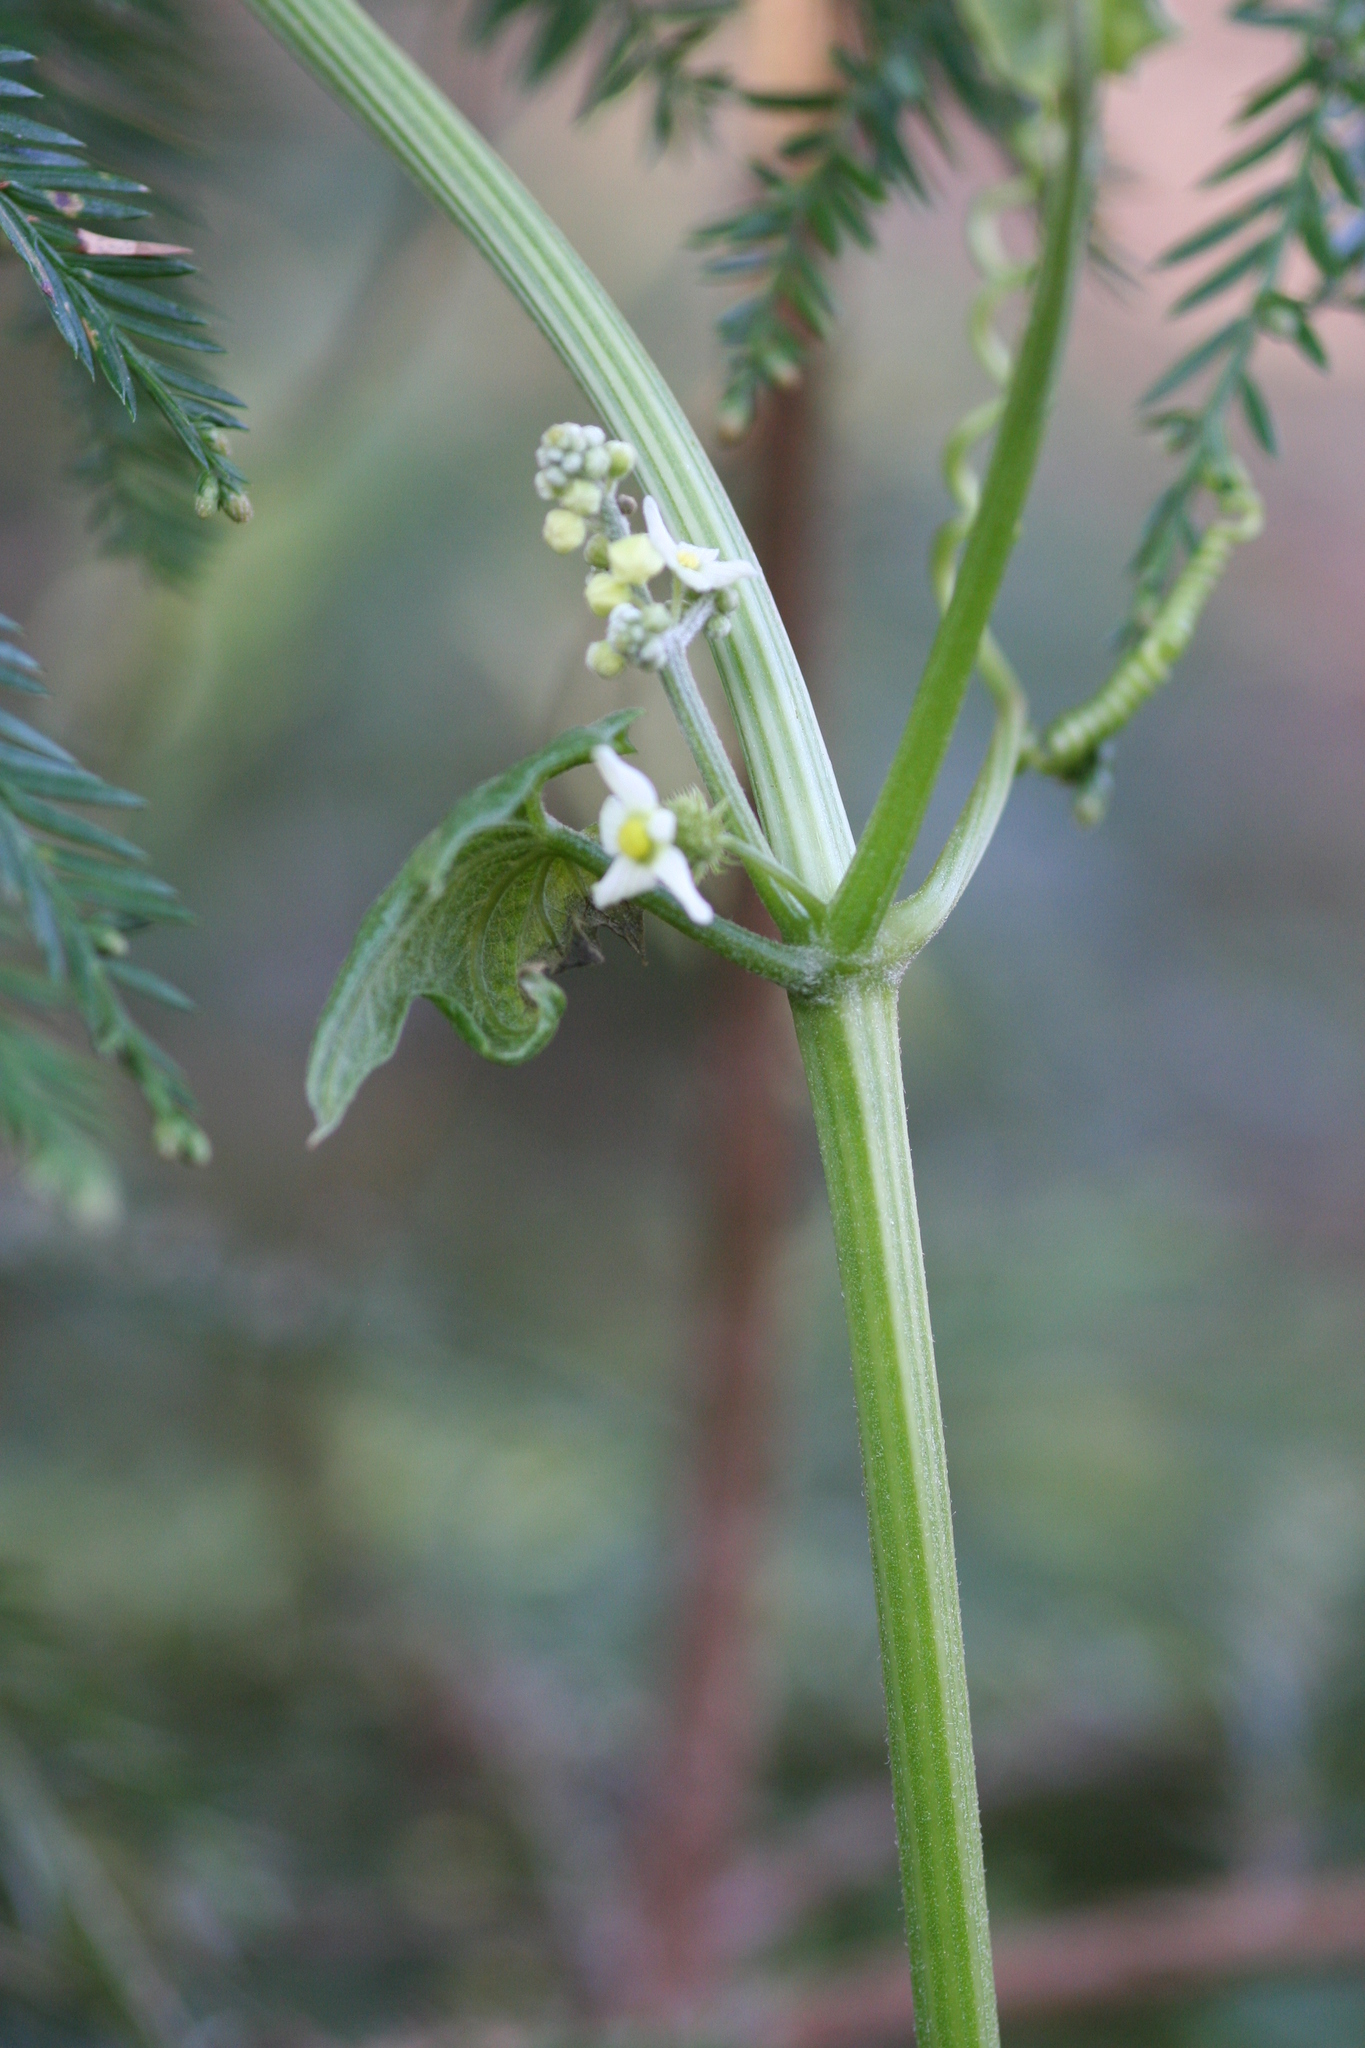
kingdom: Plantae
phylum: Tracheophyta
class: Magnoliopsida
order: Cucurbitales
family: Cucurbitaceae
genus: Marah
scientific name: Marah fabacea
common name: California manroot
